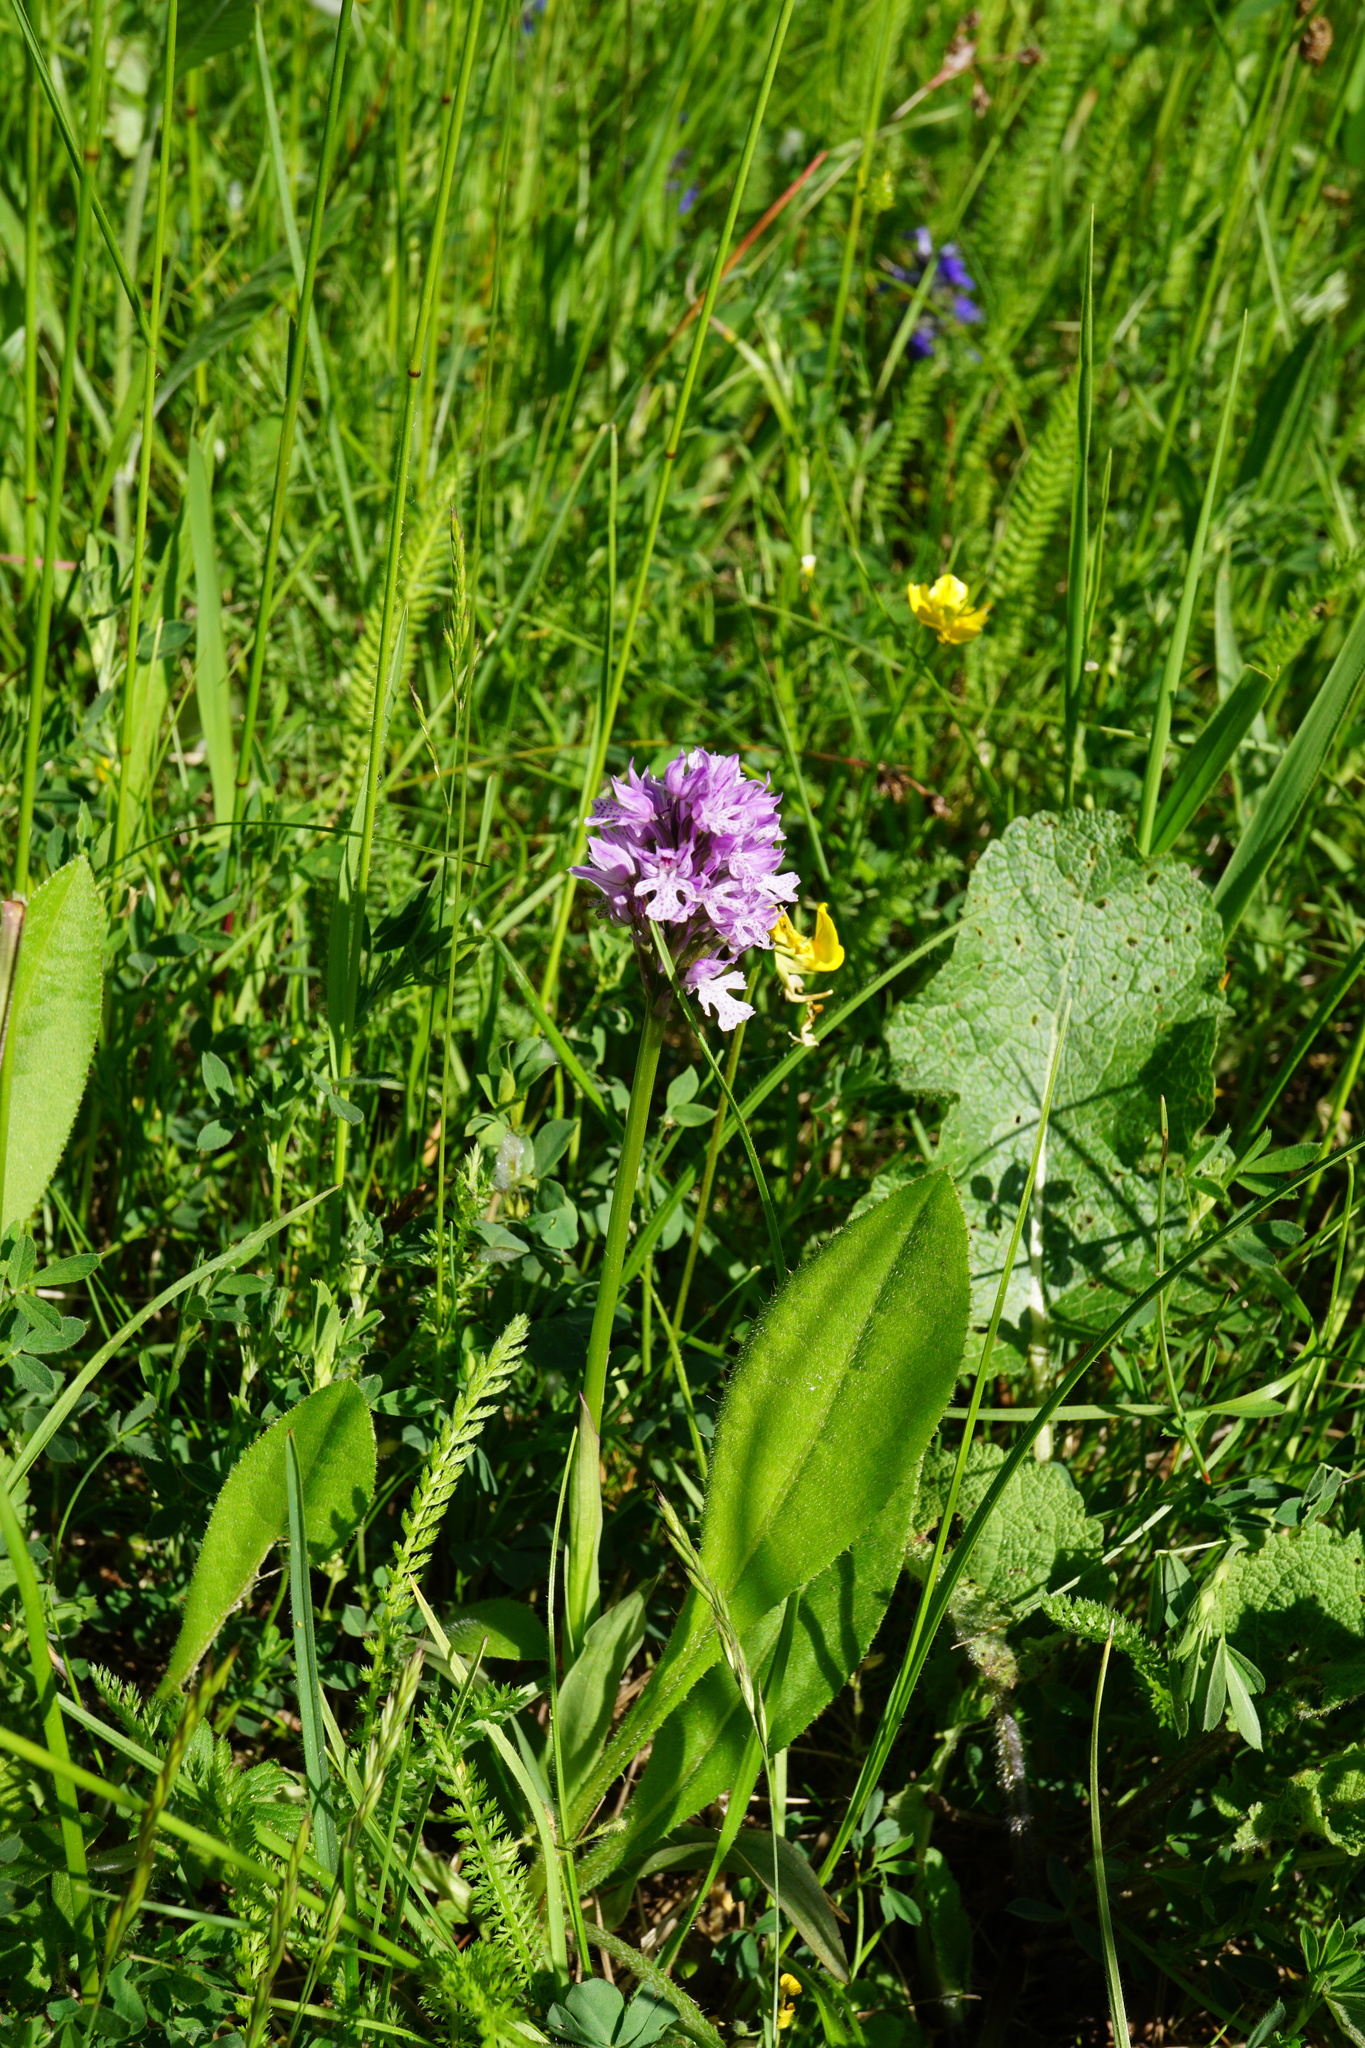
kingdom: Plantae
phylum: Tracheophyta
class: Liliopsida
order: Asparagales
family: Orchidaceae
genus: Neotinea
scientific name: Neotinea tridentata
